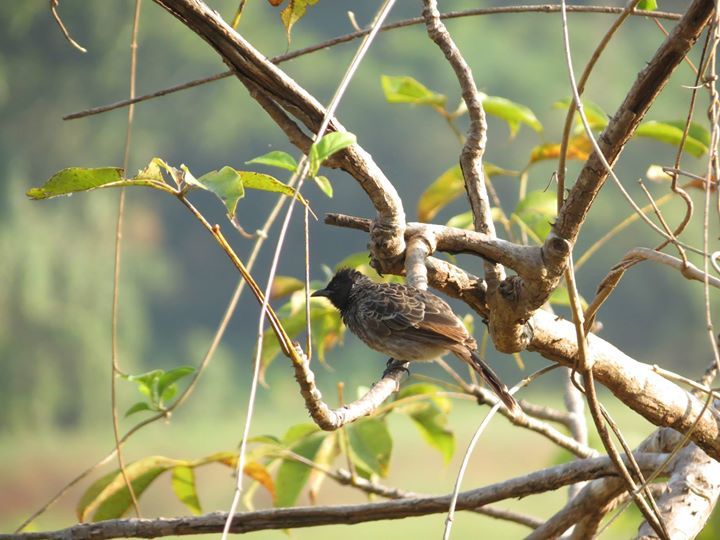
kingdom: Animalia
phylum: Chordata
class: Aves
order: Passeriformes
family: Pycnonotidae
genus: Pycnonotus
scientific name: Pycnonotus cafer
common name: Red-vented bulbul
